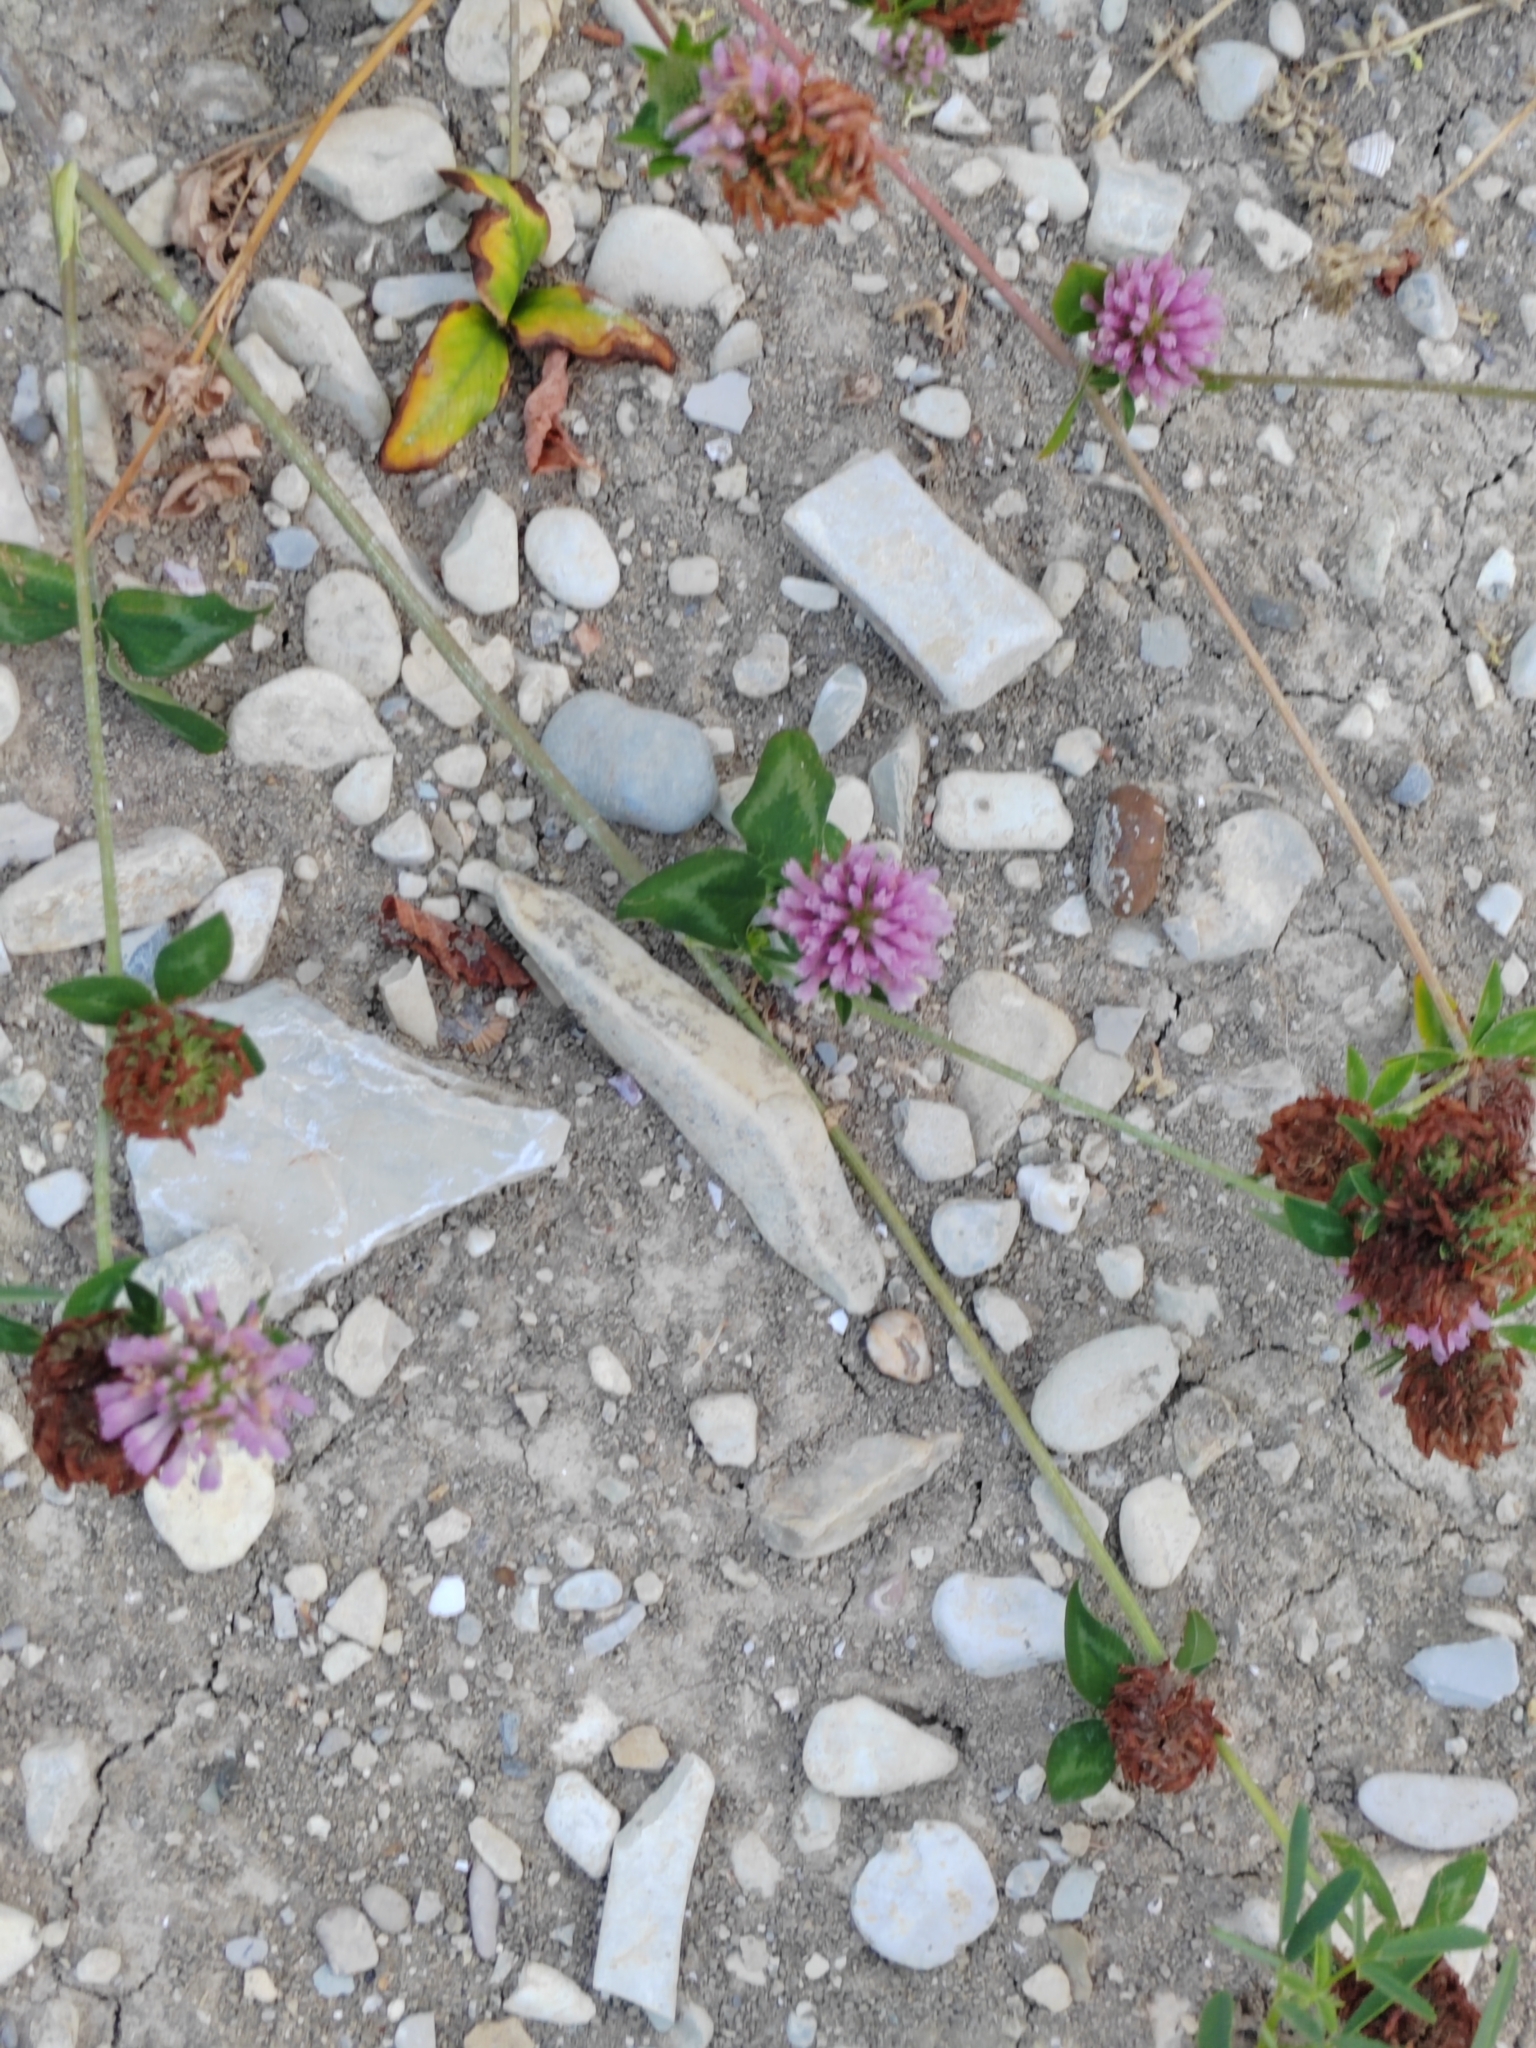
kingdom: Plantae
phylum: Tracheophyta
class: Magnoliopsida
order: Fabales
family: Fabaceae
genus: Trifolium
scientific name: Trifolium pratense
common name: Red clover
